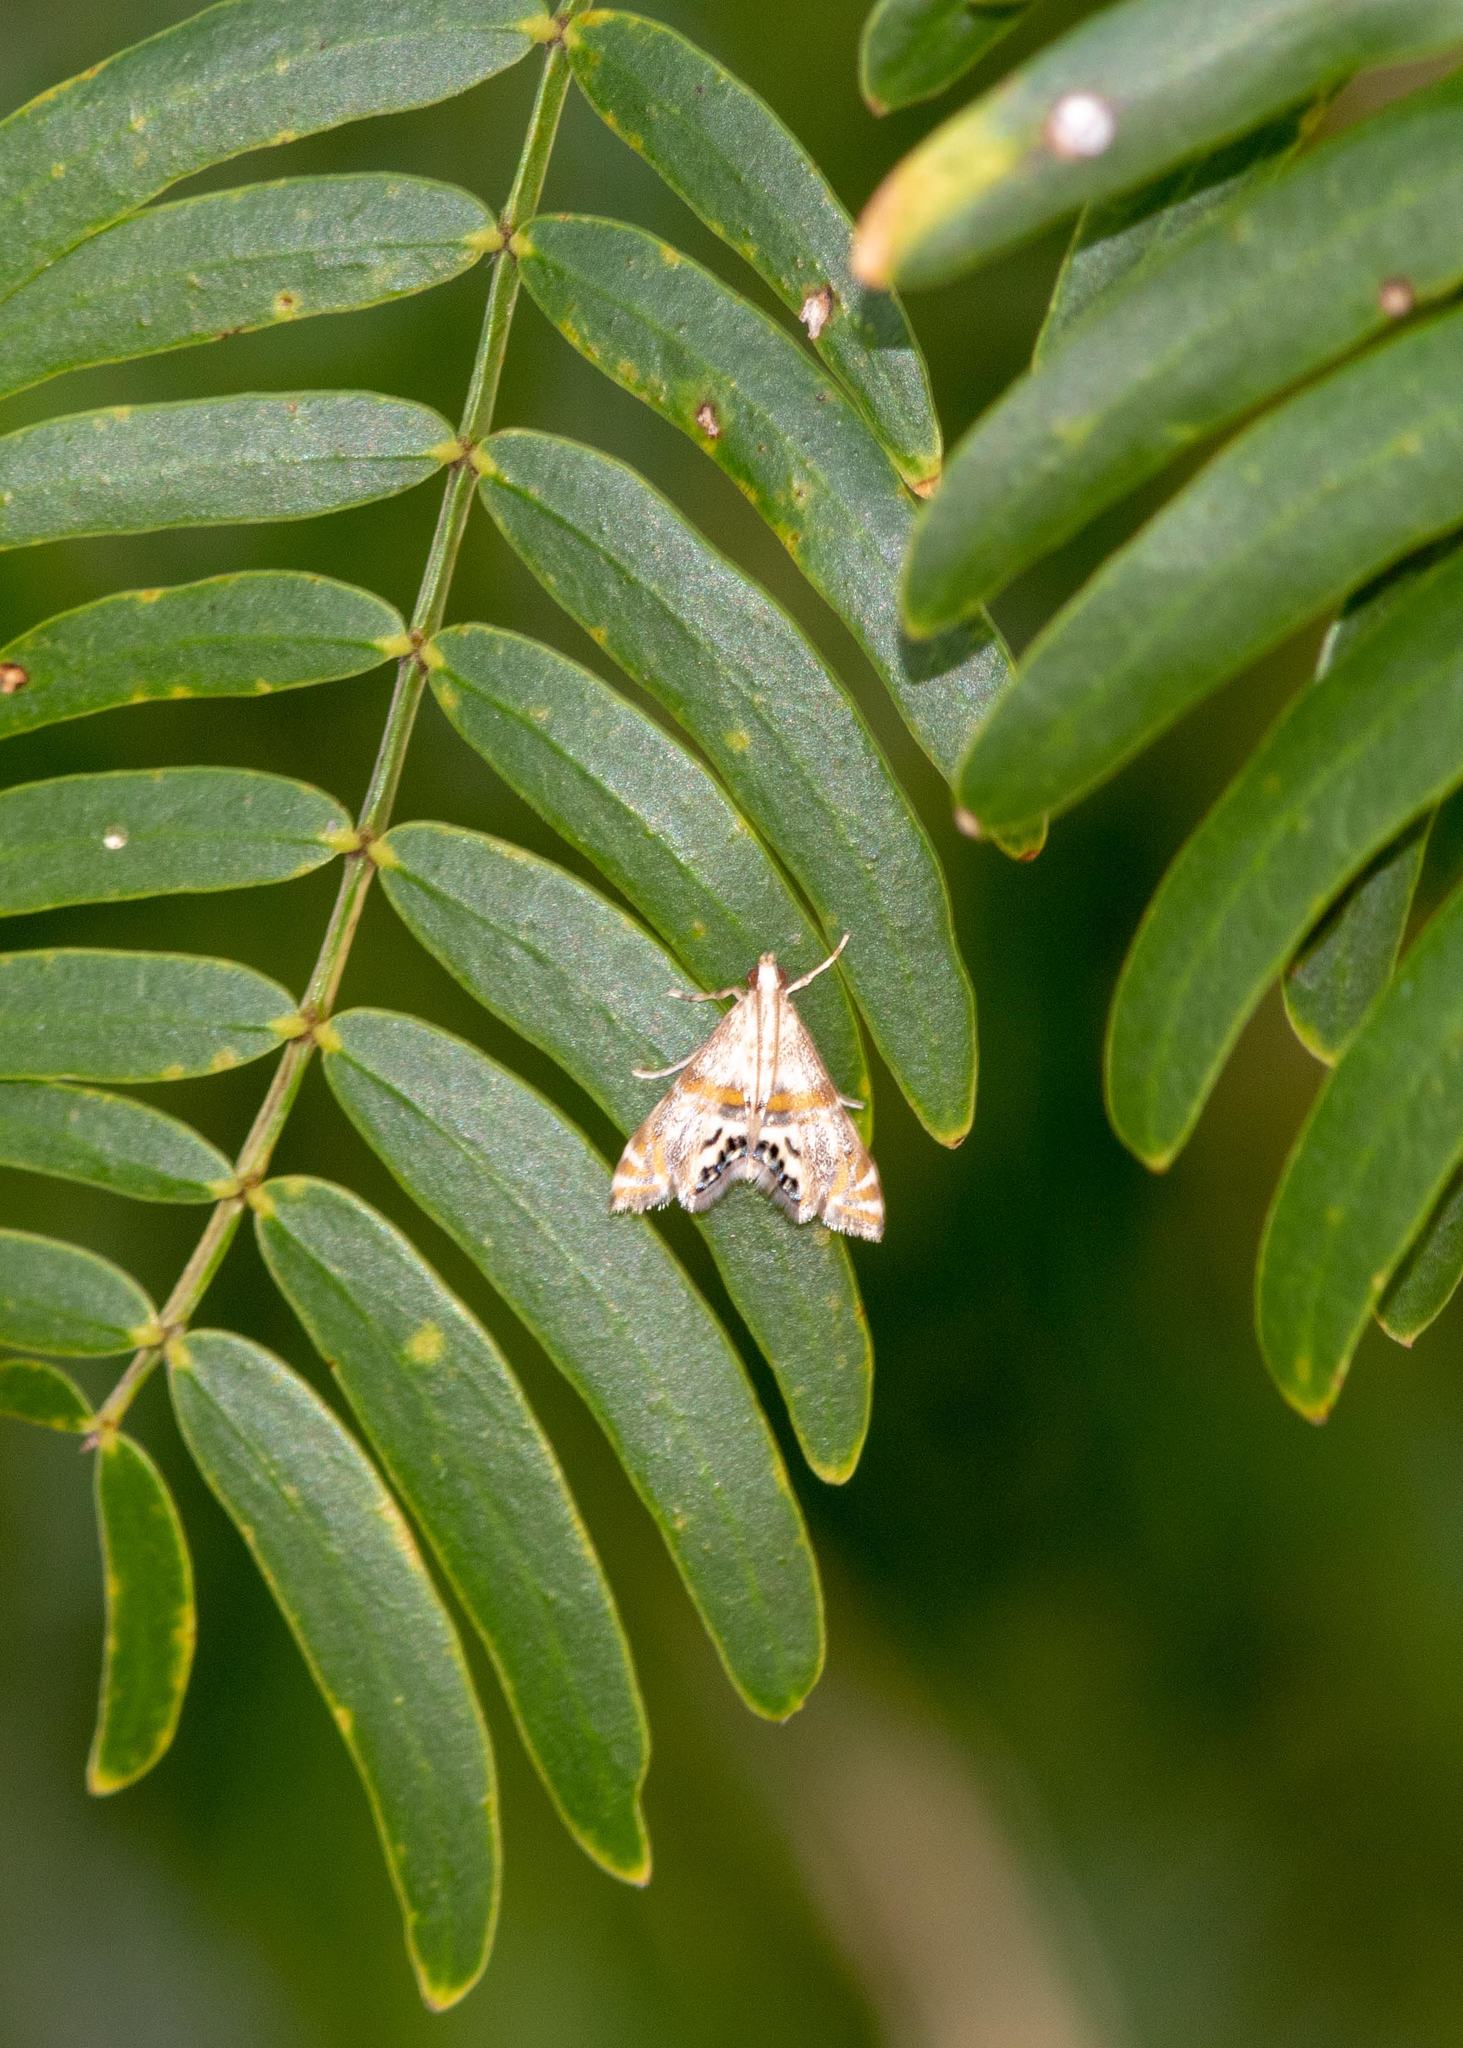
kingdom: Animalia
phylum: Arthropoda
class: Insecta
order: Lepidoptera
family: Crambidae
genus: Petrophila
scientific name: Petrophila bifascialis
